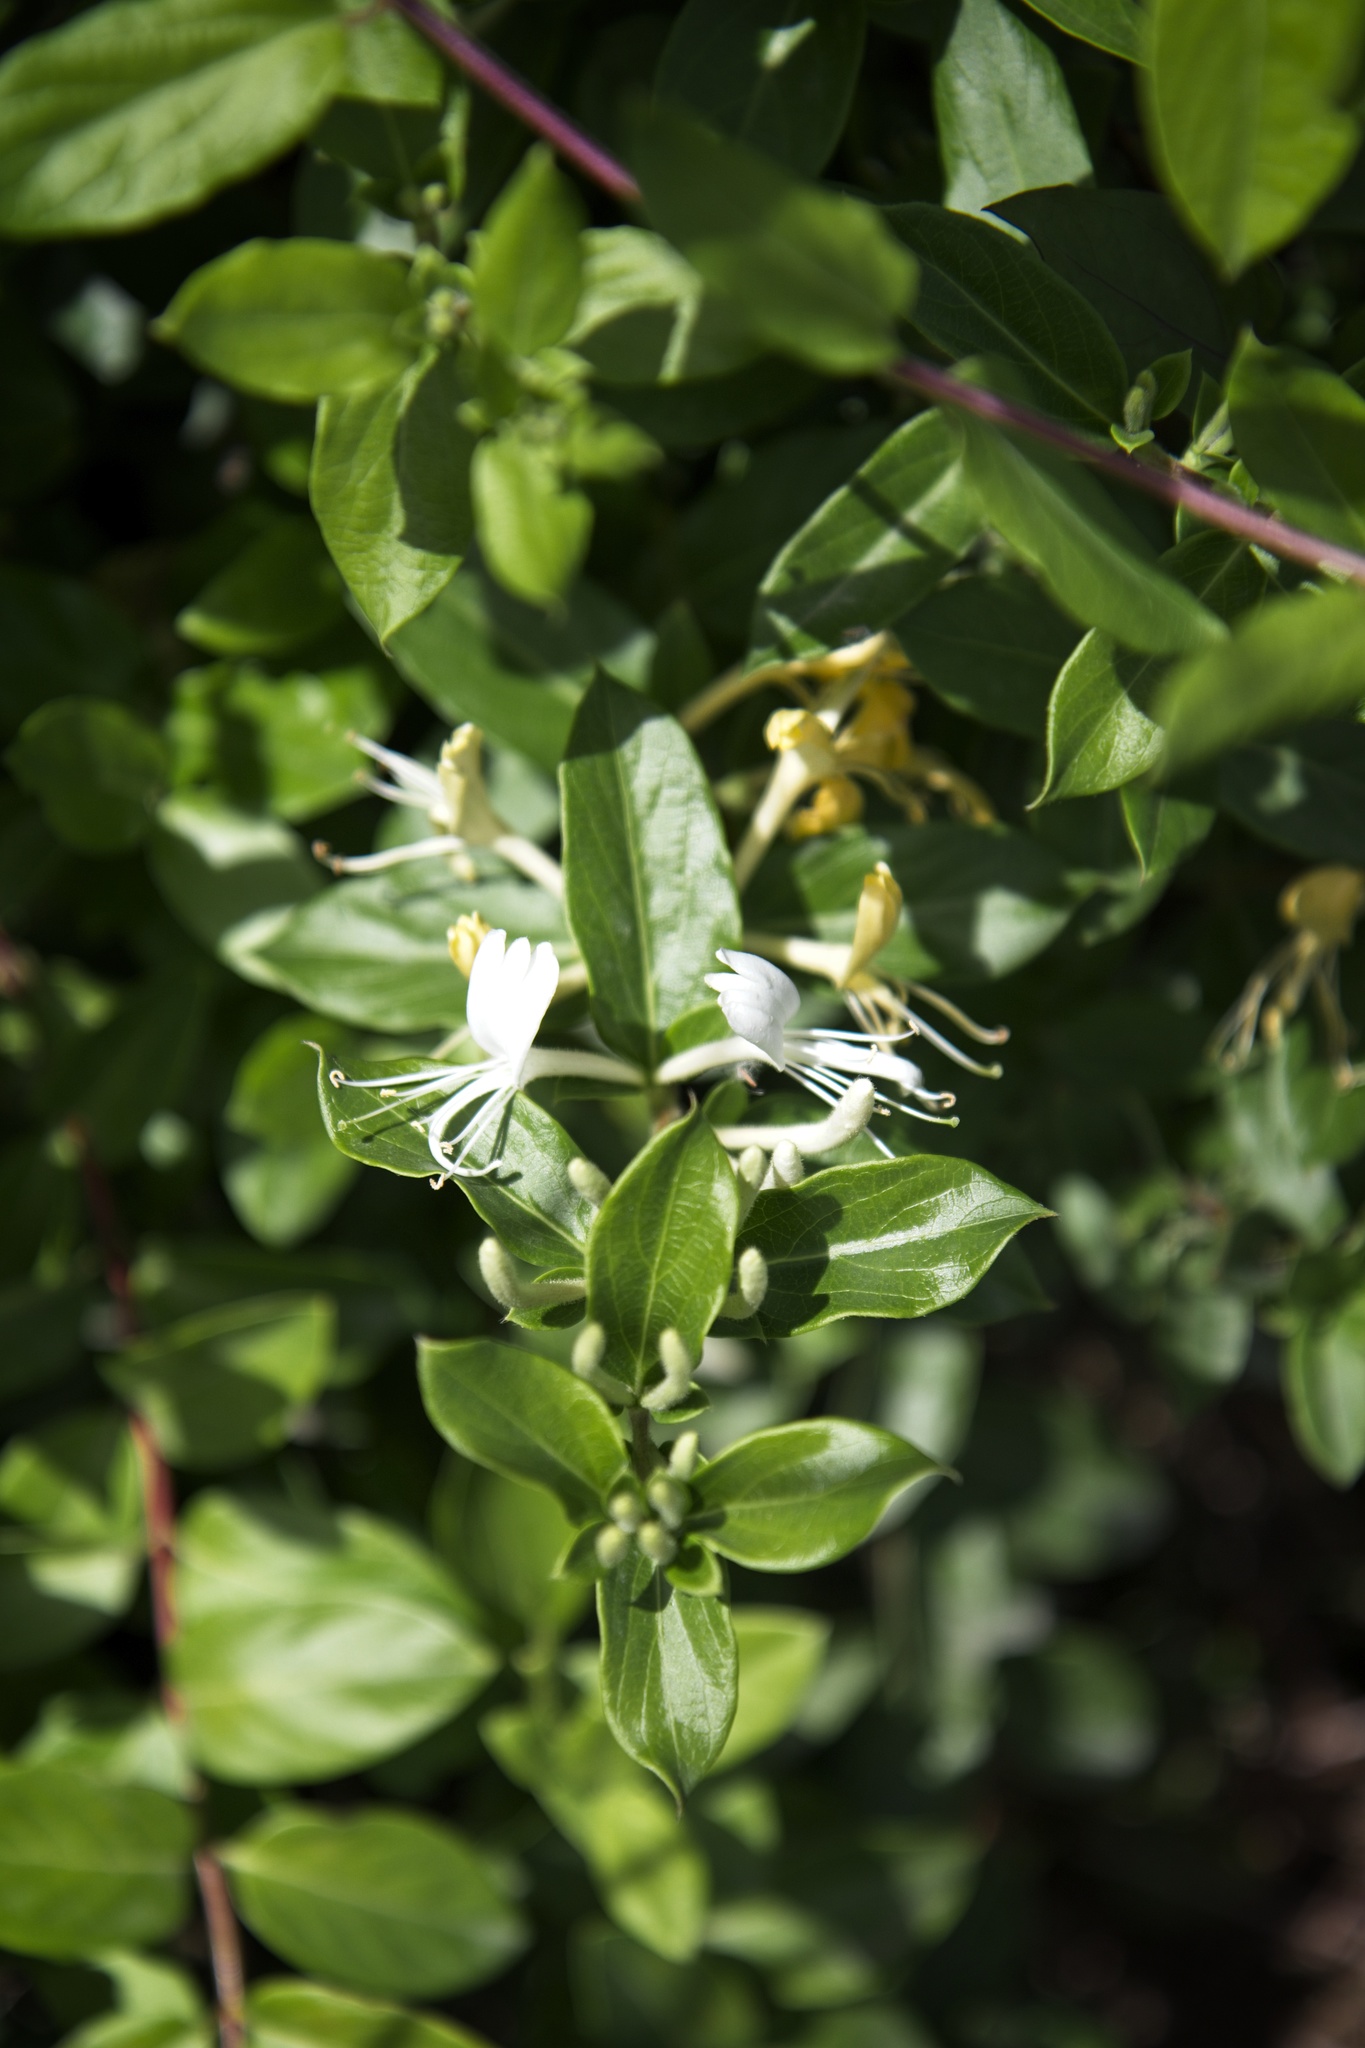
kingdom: Plantae
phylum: Tracheophyta
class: Magnoliopsida
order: Dipsacales
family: Caprifoliaceae
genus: Lonicera
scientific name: Lonicera japonica
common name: Japanese honeysuckle
